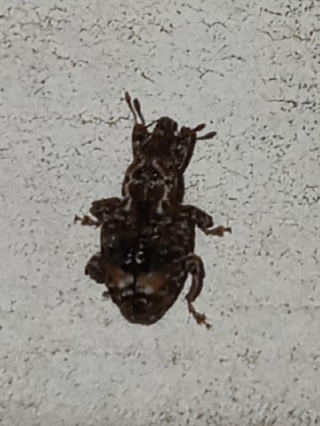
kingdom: Animalia
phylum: Arthropoda
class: Insecta
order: Coleoptera
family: Curculionidae
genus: Conotrachelus
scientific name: Conotrachelus nenuphar
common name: Plum curculio
